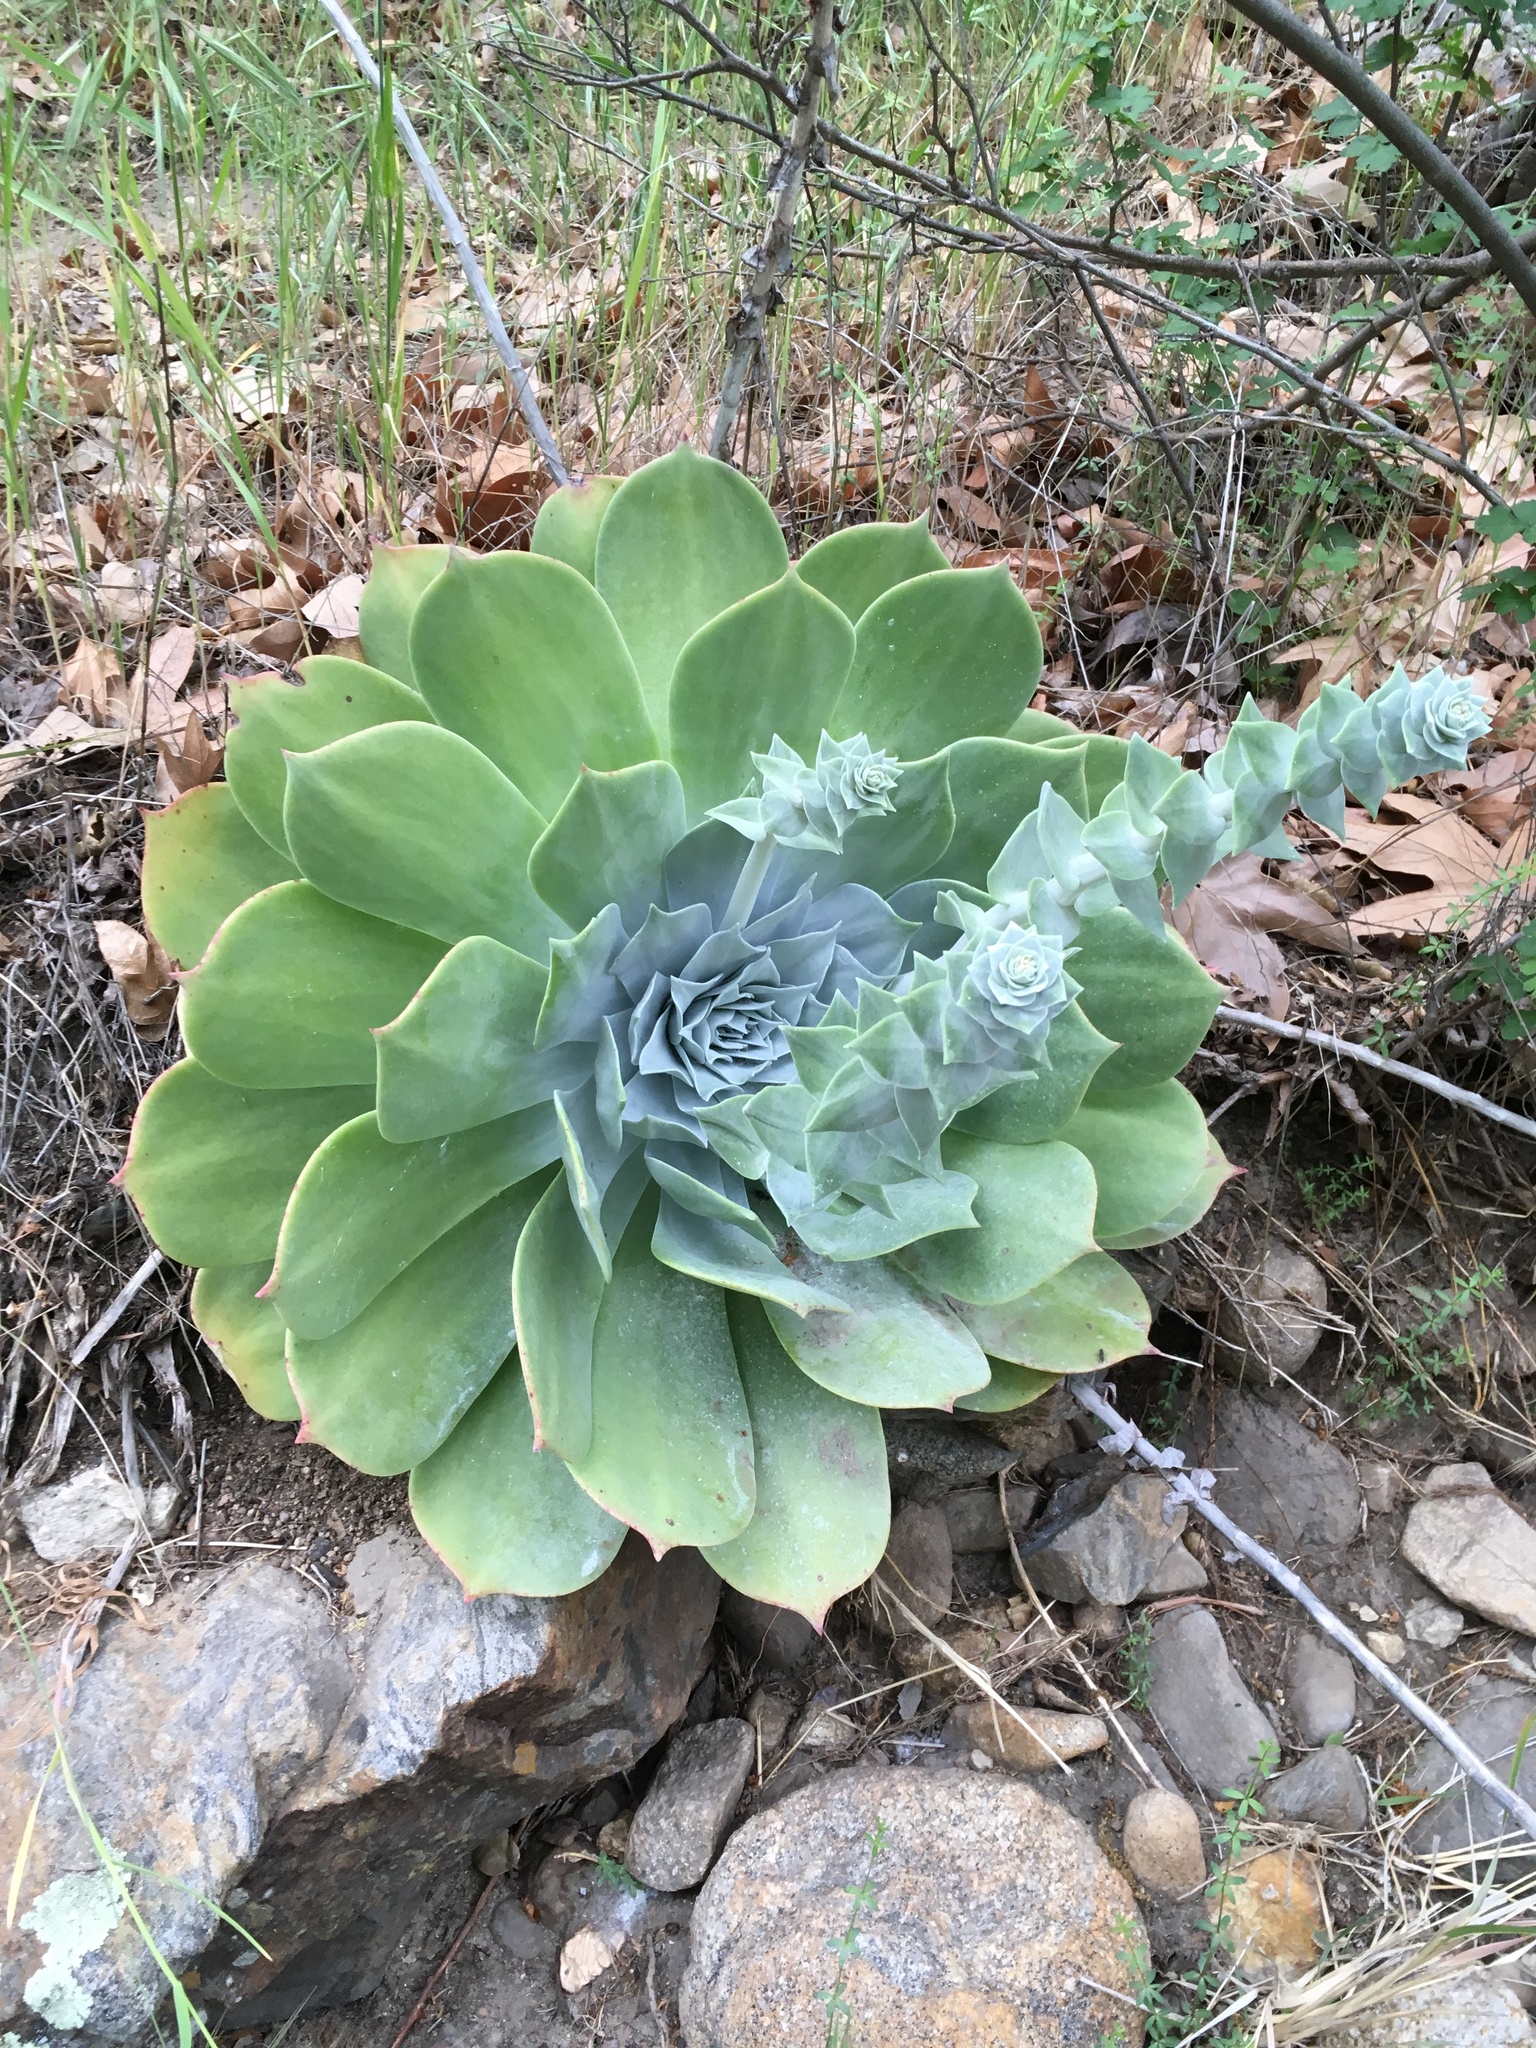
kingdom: Plantae
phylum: Tracheophyta
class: Magnoliopsida
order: Saxifragales
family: Crassulaceae
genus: Dudleya
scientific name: Dudleya pulverulenta
